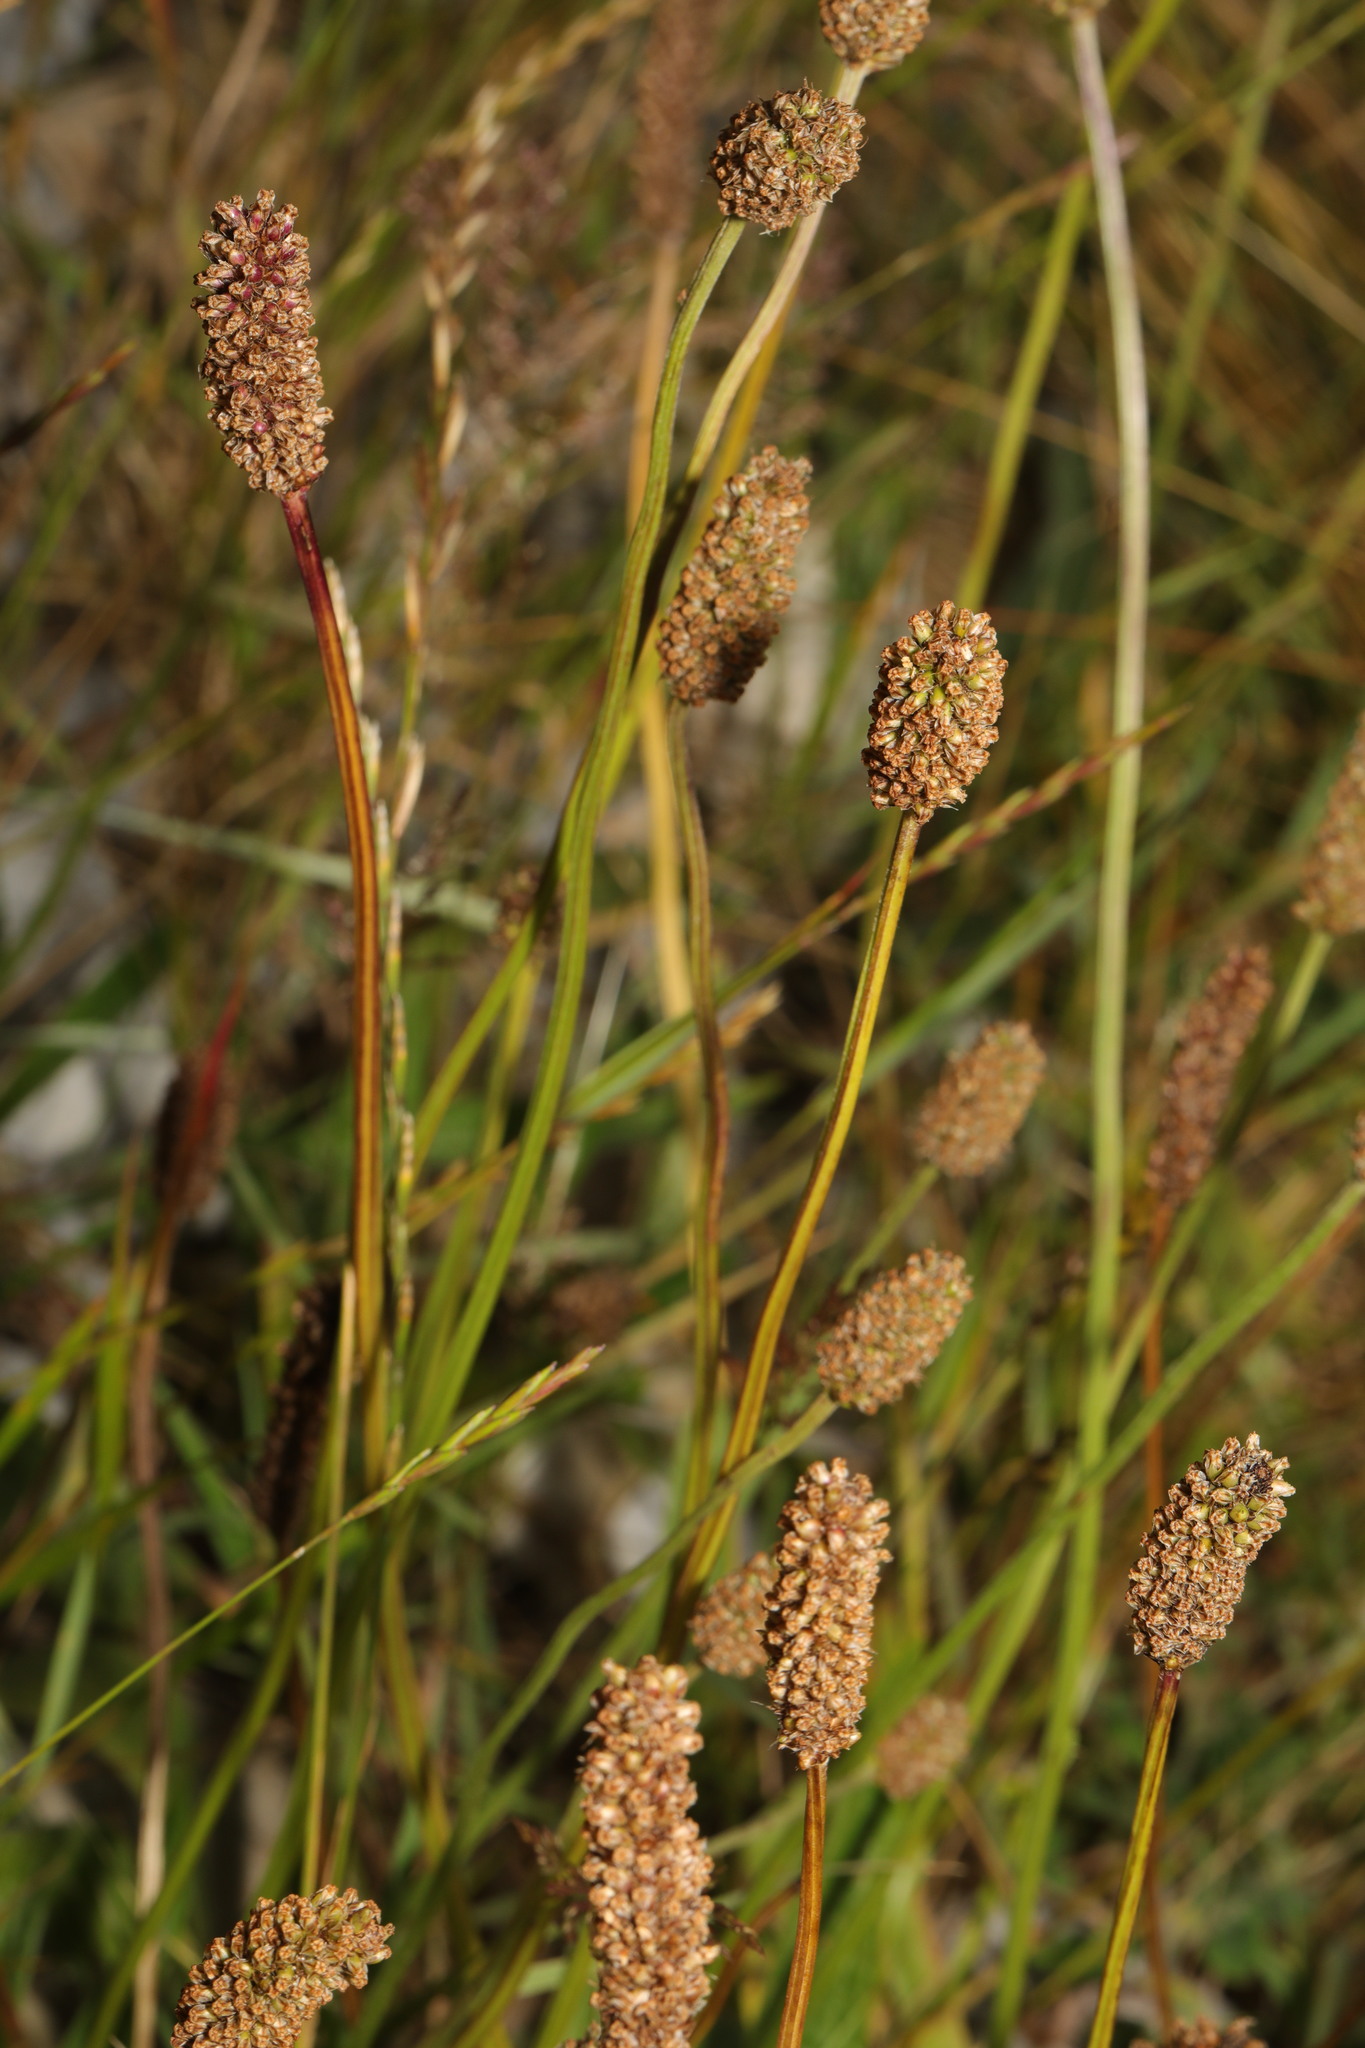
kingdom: Plantae
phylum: Tracheophyta
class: Magnoliopsida
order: Lamiales
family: Plantaginaceae
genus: Plantago
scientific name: Plantago lanceolata
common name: Ribwort plantain
